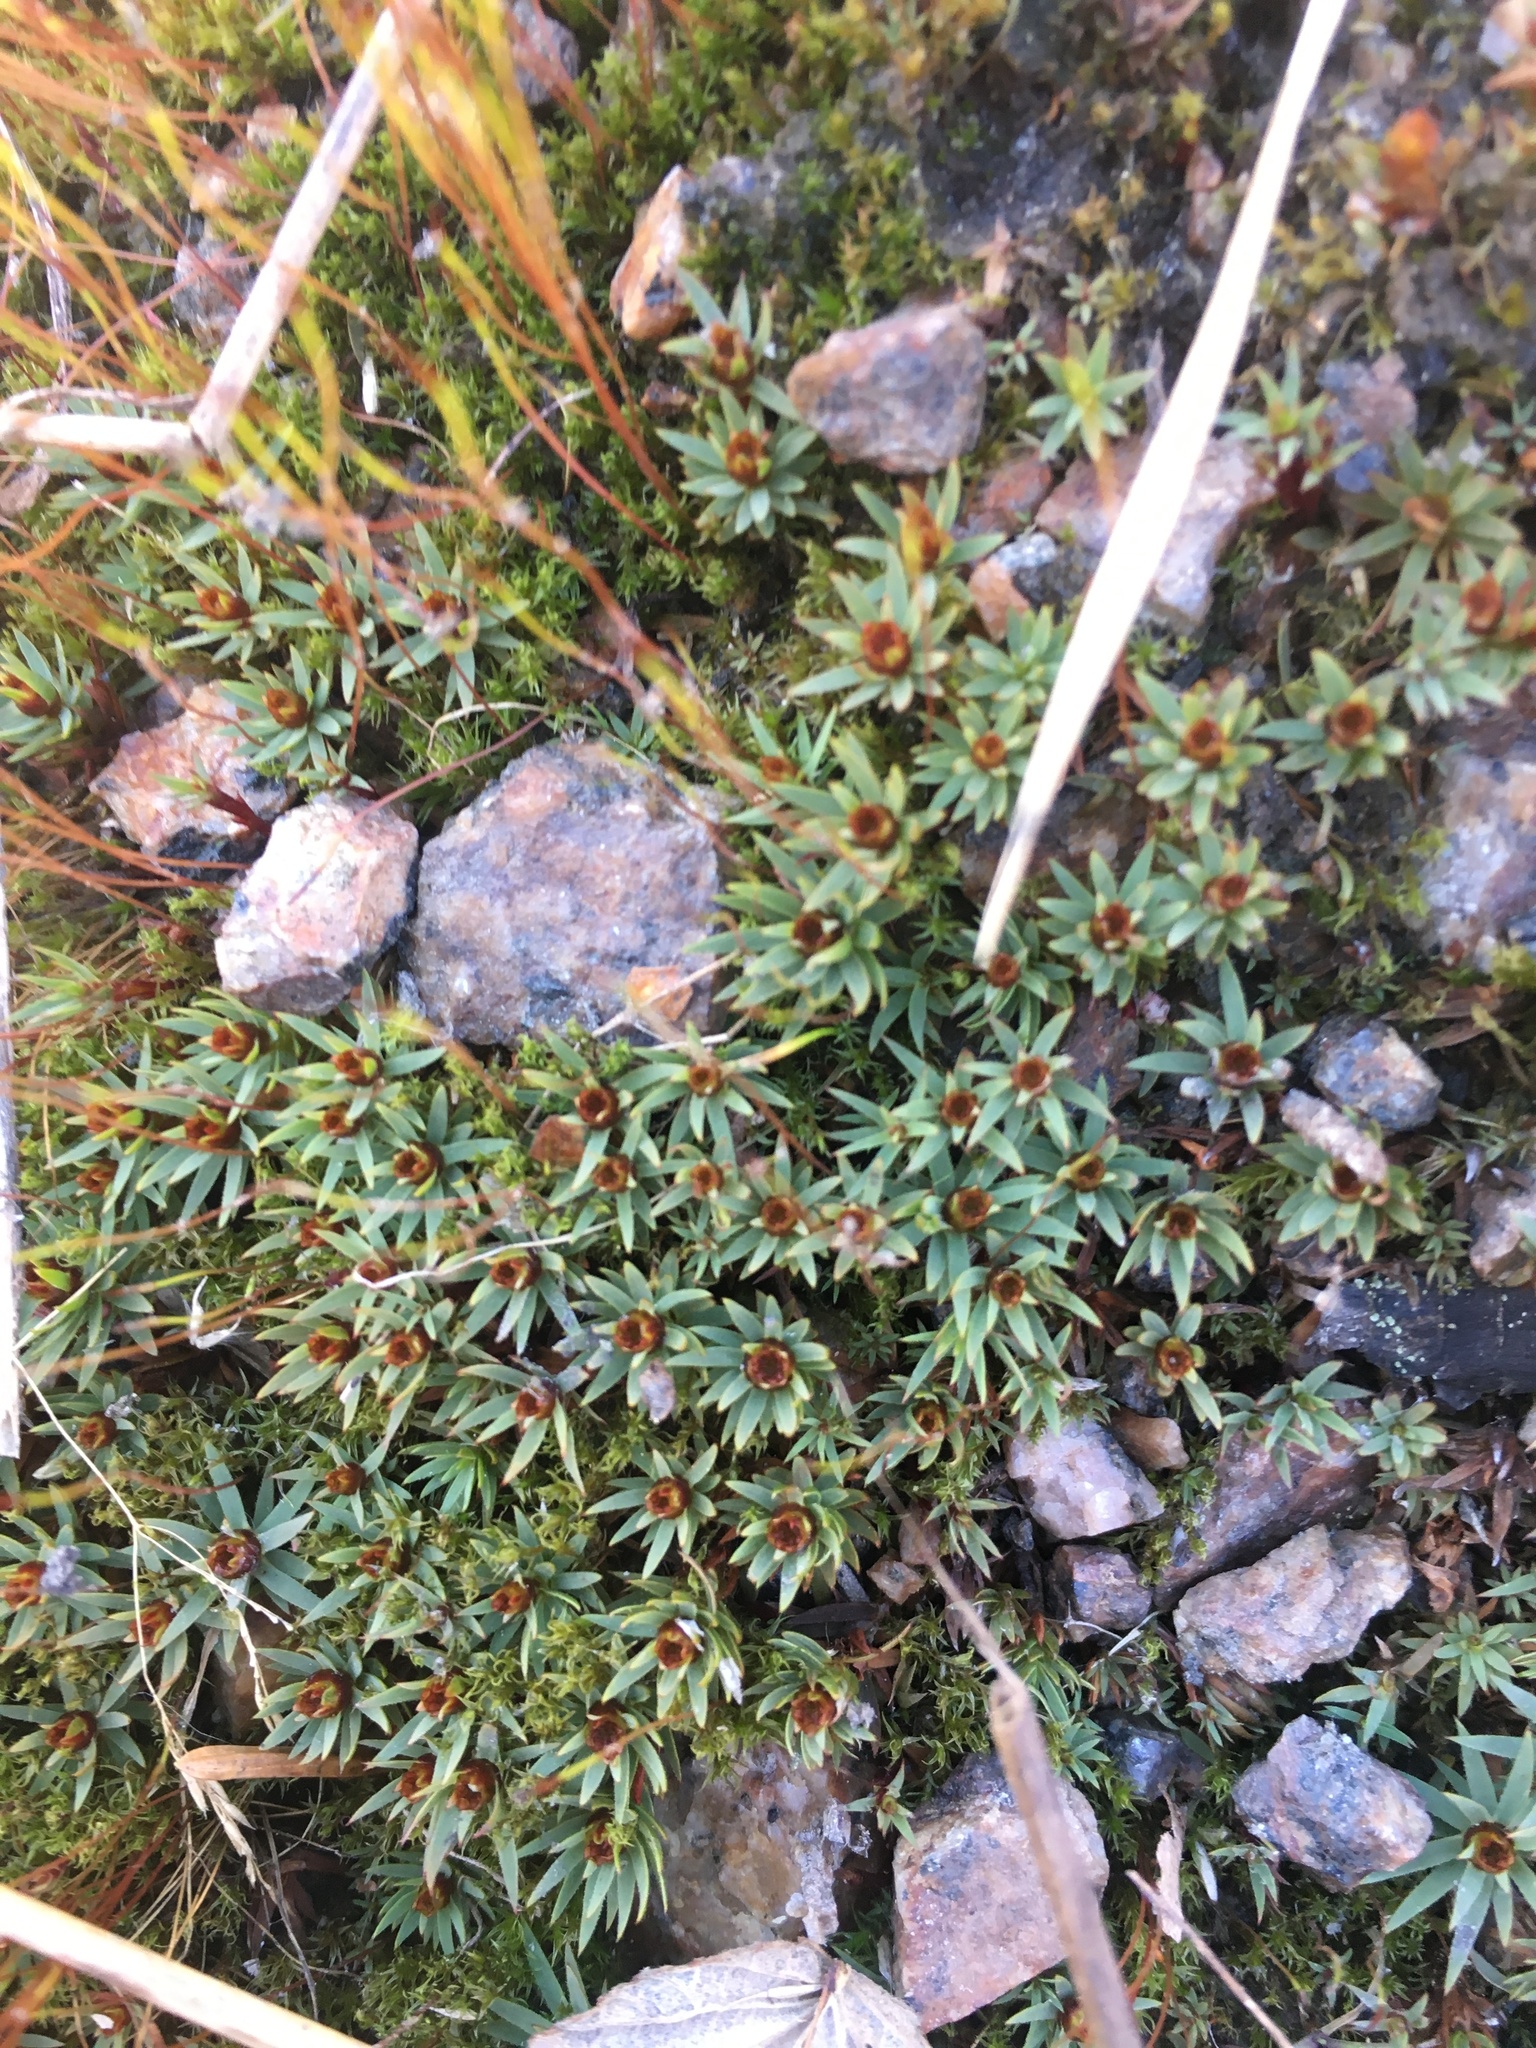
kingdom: Plantae
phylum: Bryophyta
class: Polytrichopsida
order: Polytrichales
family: Polytrichaceae
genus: Pogonatum
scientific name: Pogonatum urnigerum
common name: Urn hair moss
